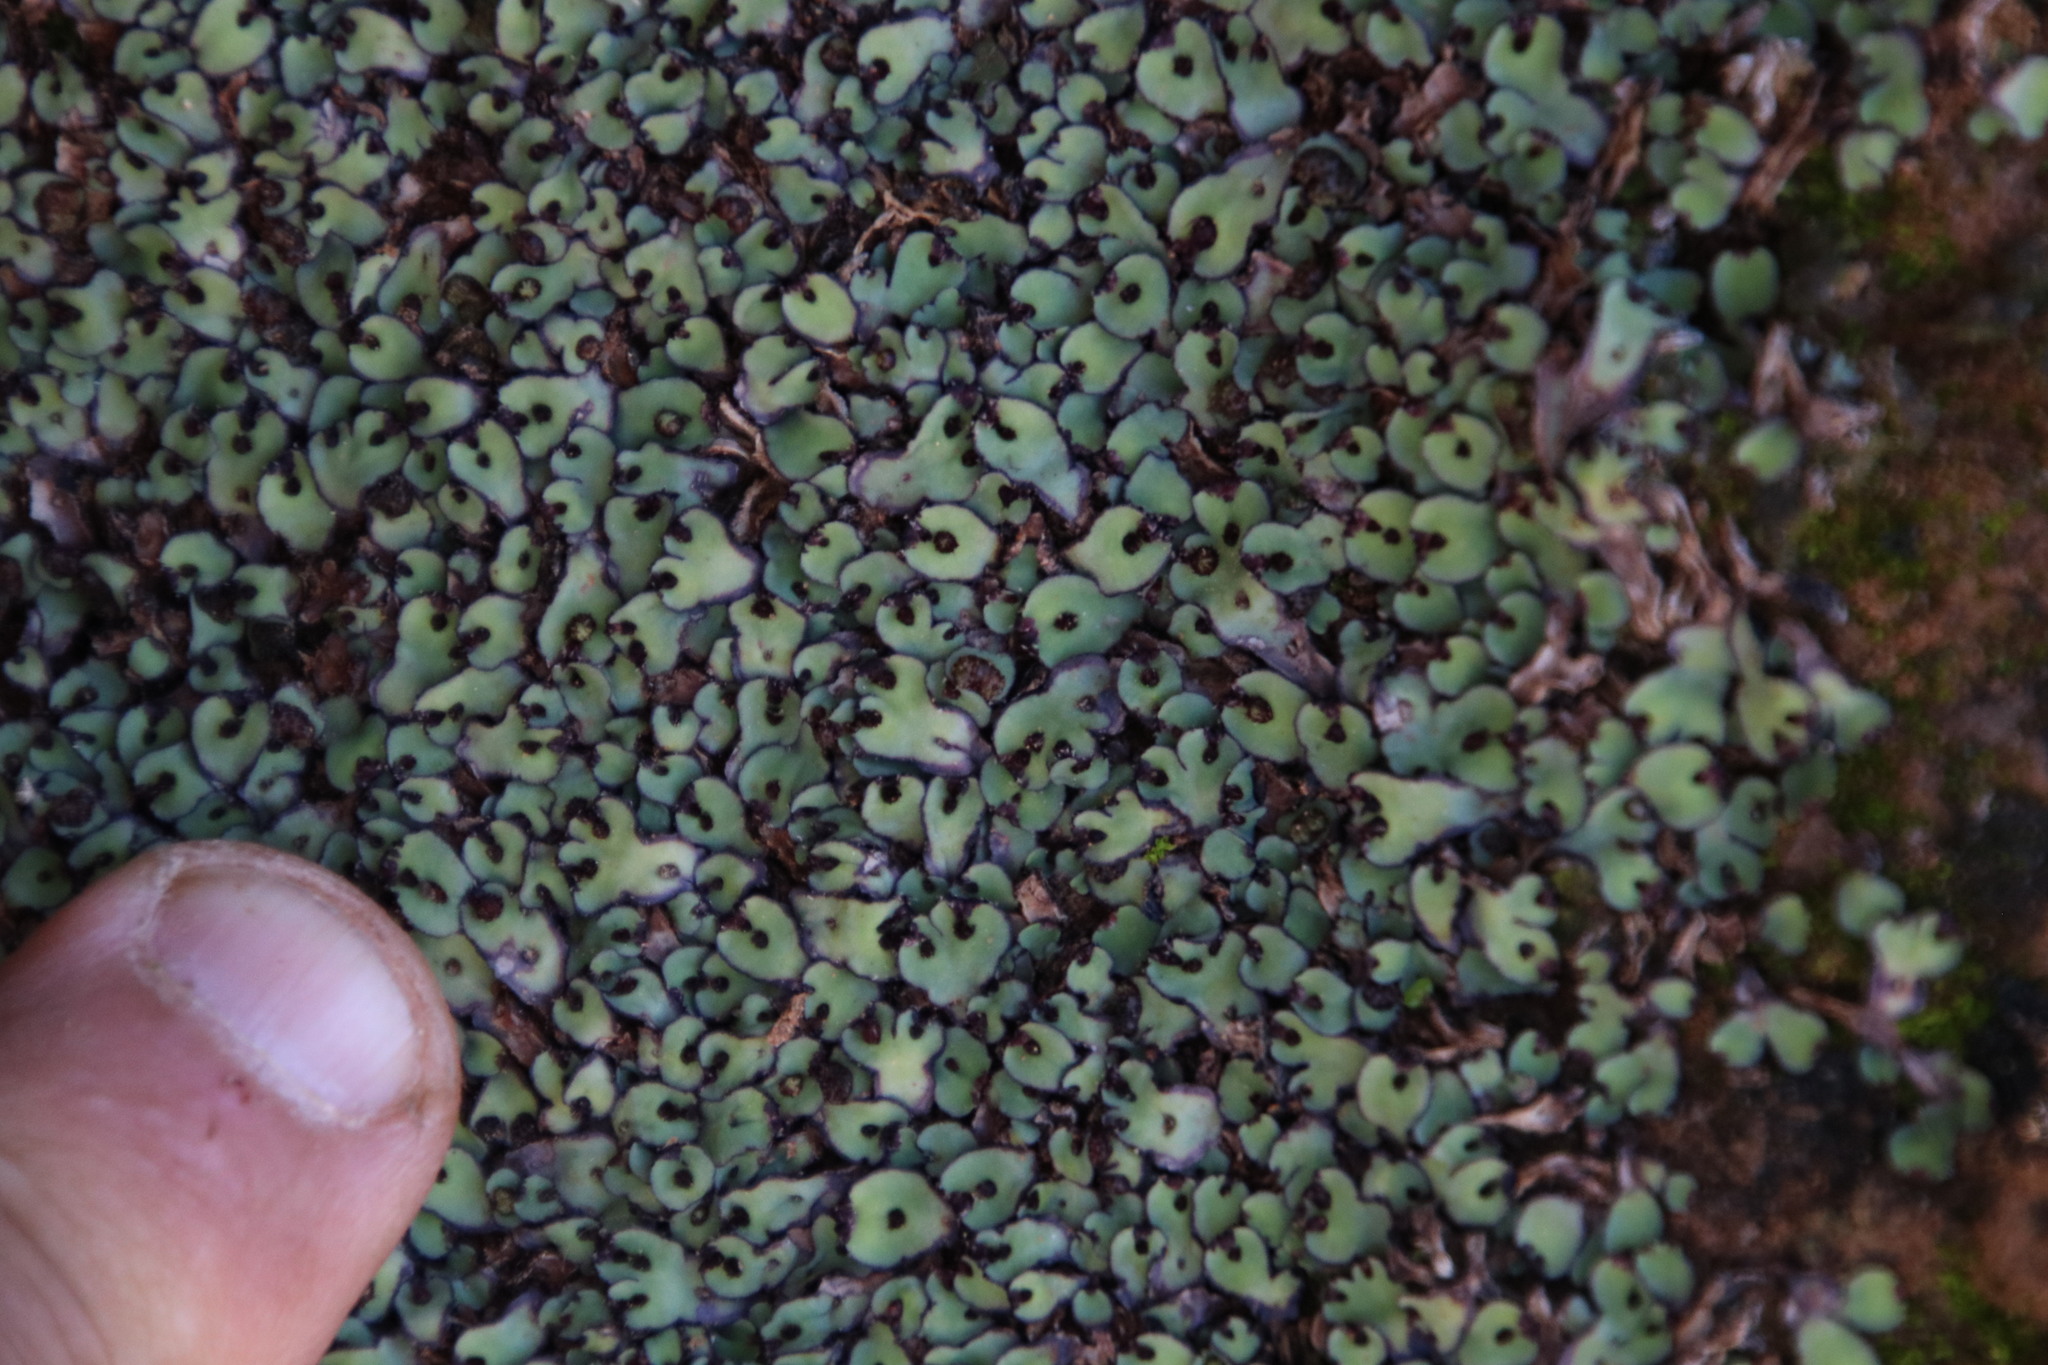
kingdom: Plantae
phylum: Marchantiophyta
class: Marchantiopsida
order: Marchantiales
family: Aytoniaceae
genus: Plagiochasma
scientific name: Plagiochasma rupestre
